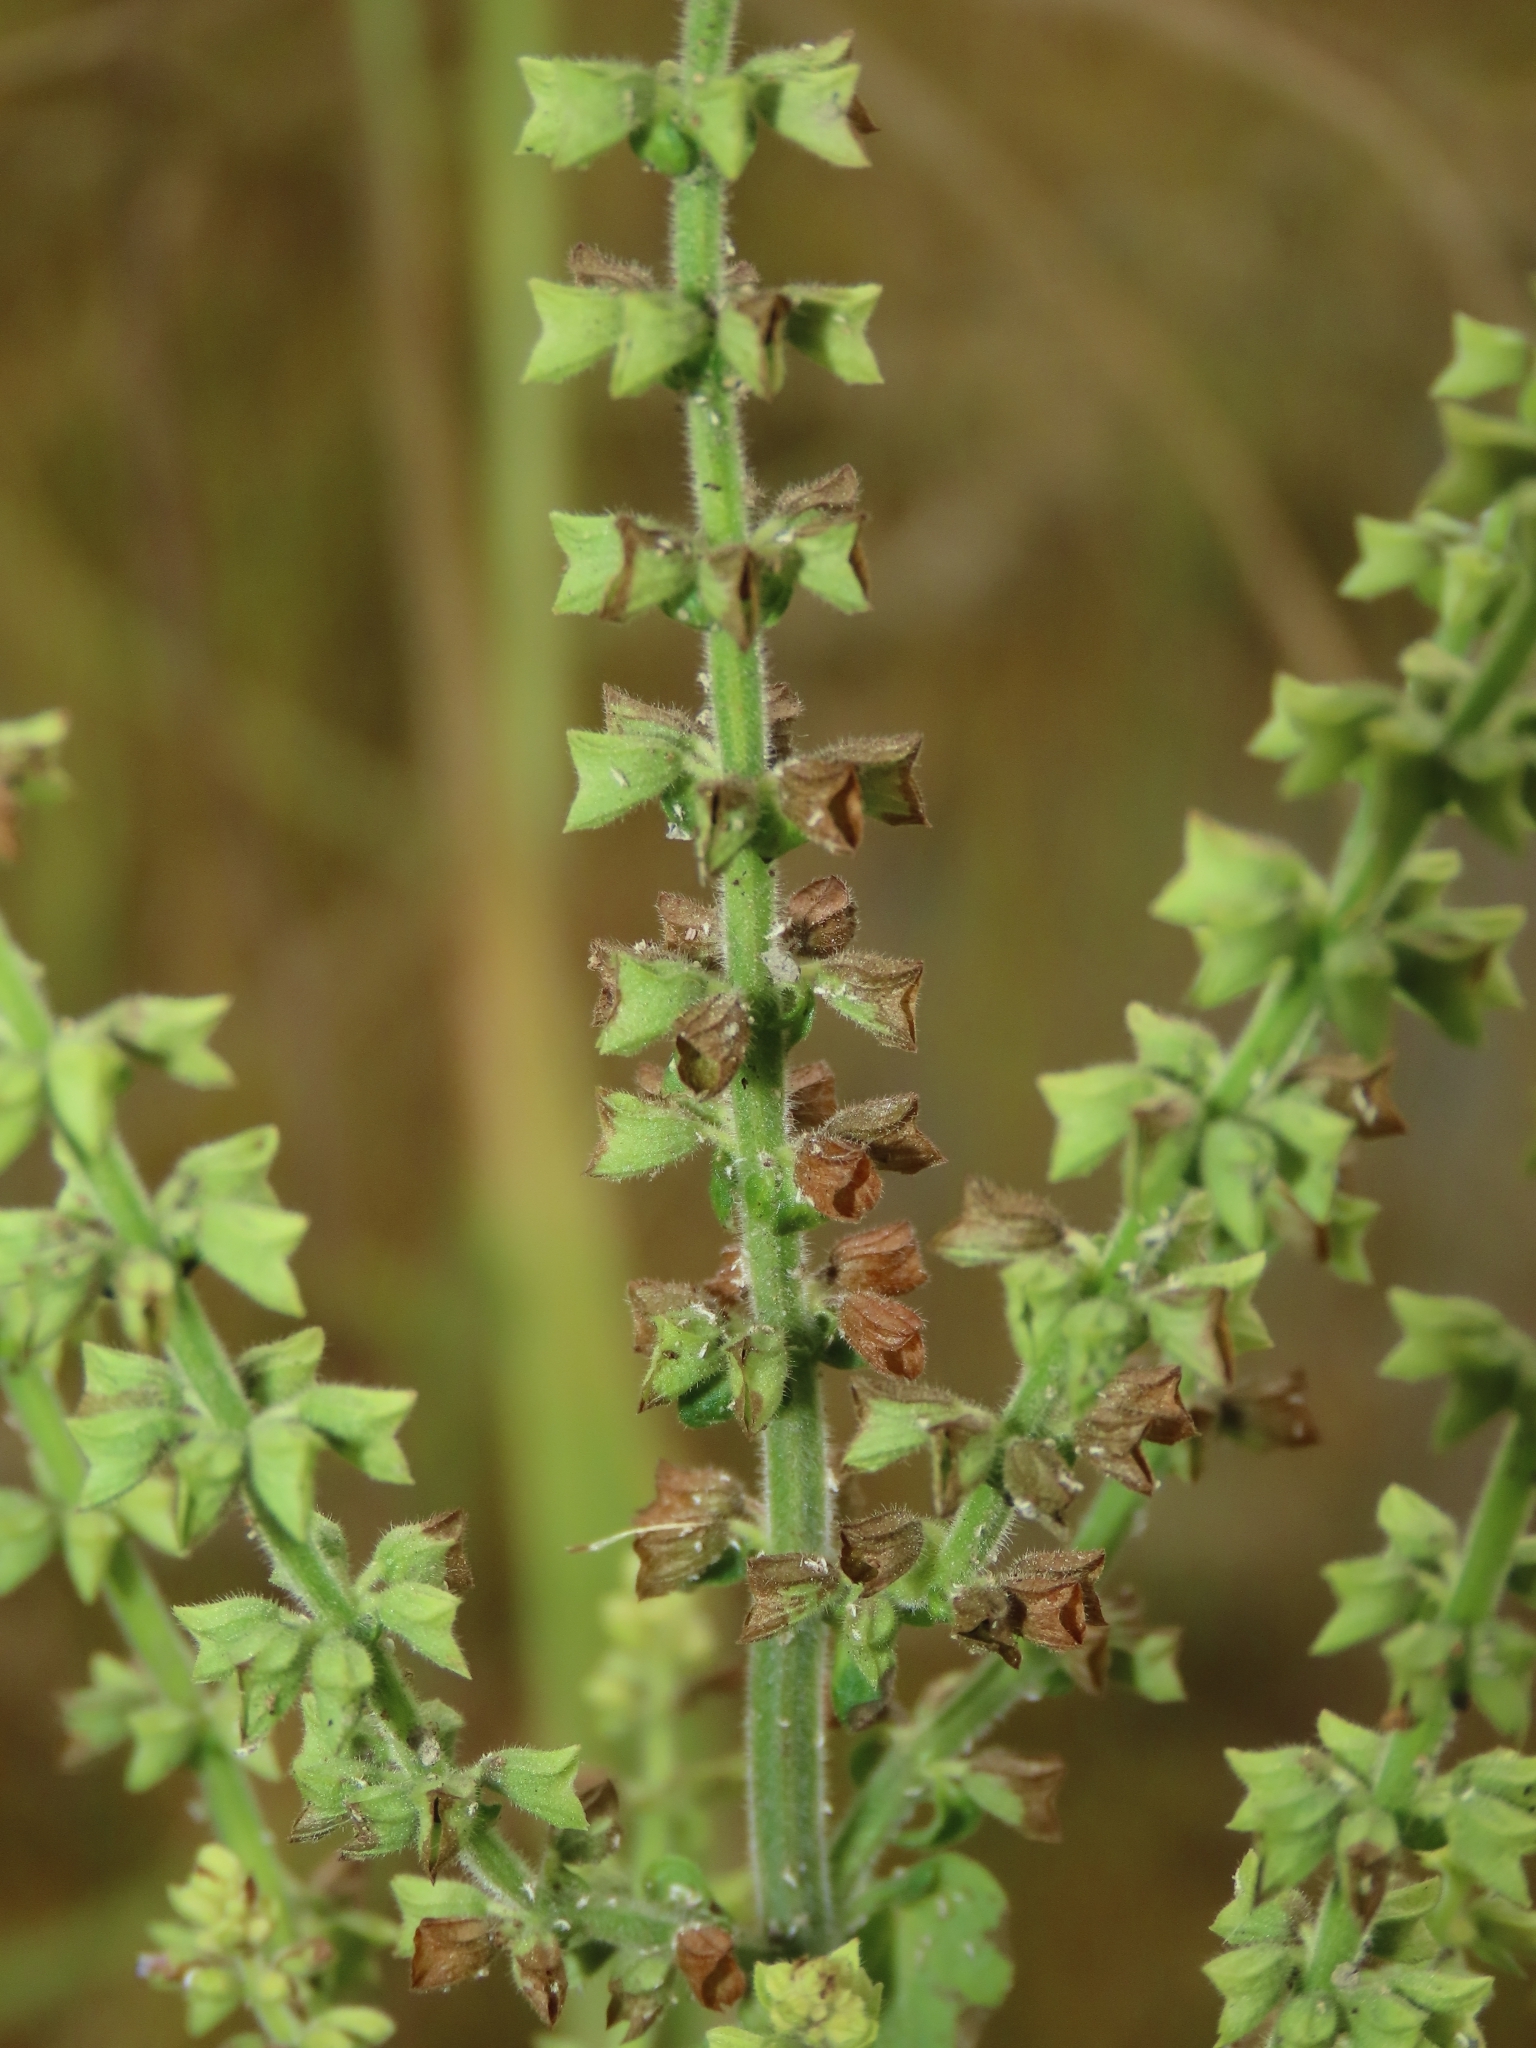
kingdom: Plantae
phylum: Tracheophyta
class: Magnoliopsida
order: Lamiales
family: Lamiaceae
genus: Salvia
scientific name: Salvia plebeia
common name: Australian sage
